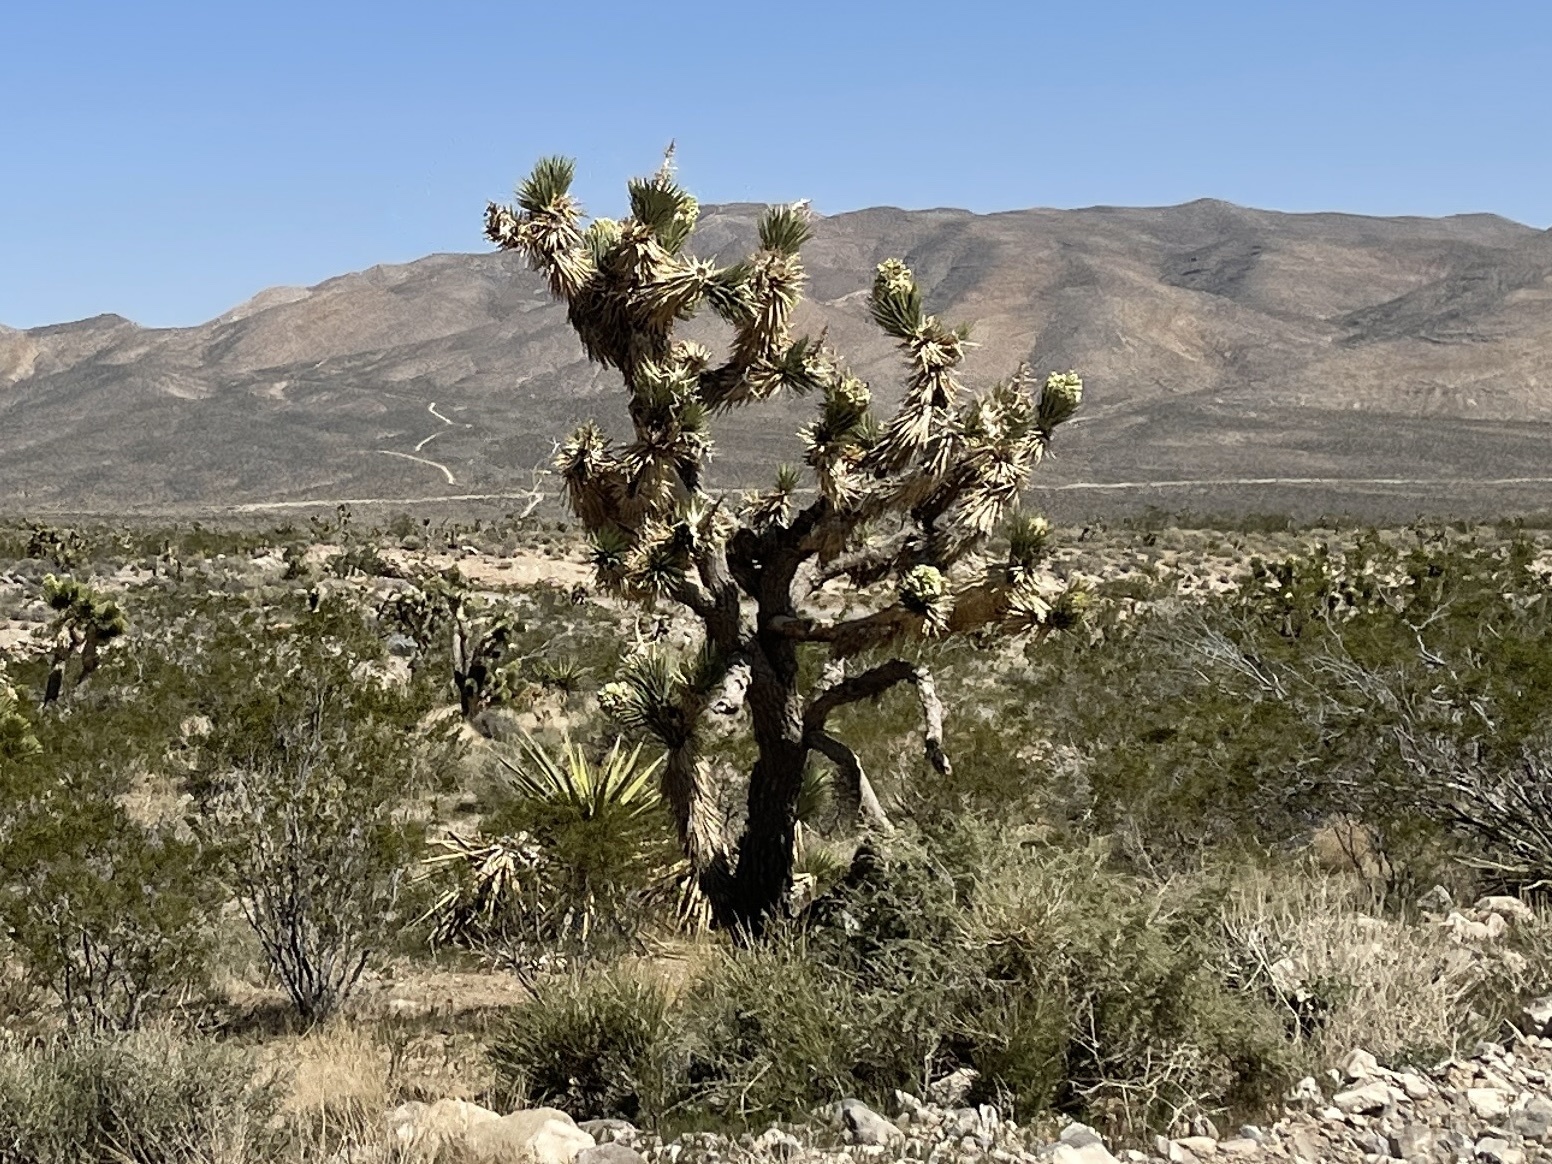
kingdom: Plantae
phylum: Tracheophyta
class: Liliopsida
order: Asparagales
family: Asparagaceae
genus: Yucca
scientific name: Yucca brevifolia
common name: Joshua tree
